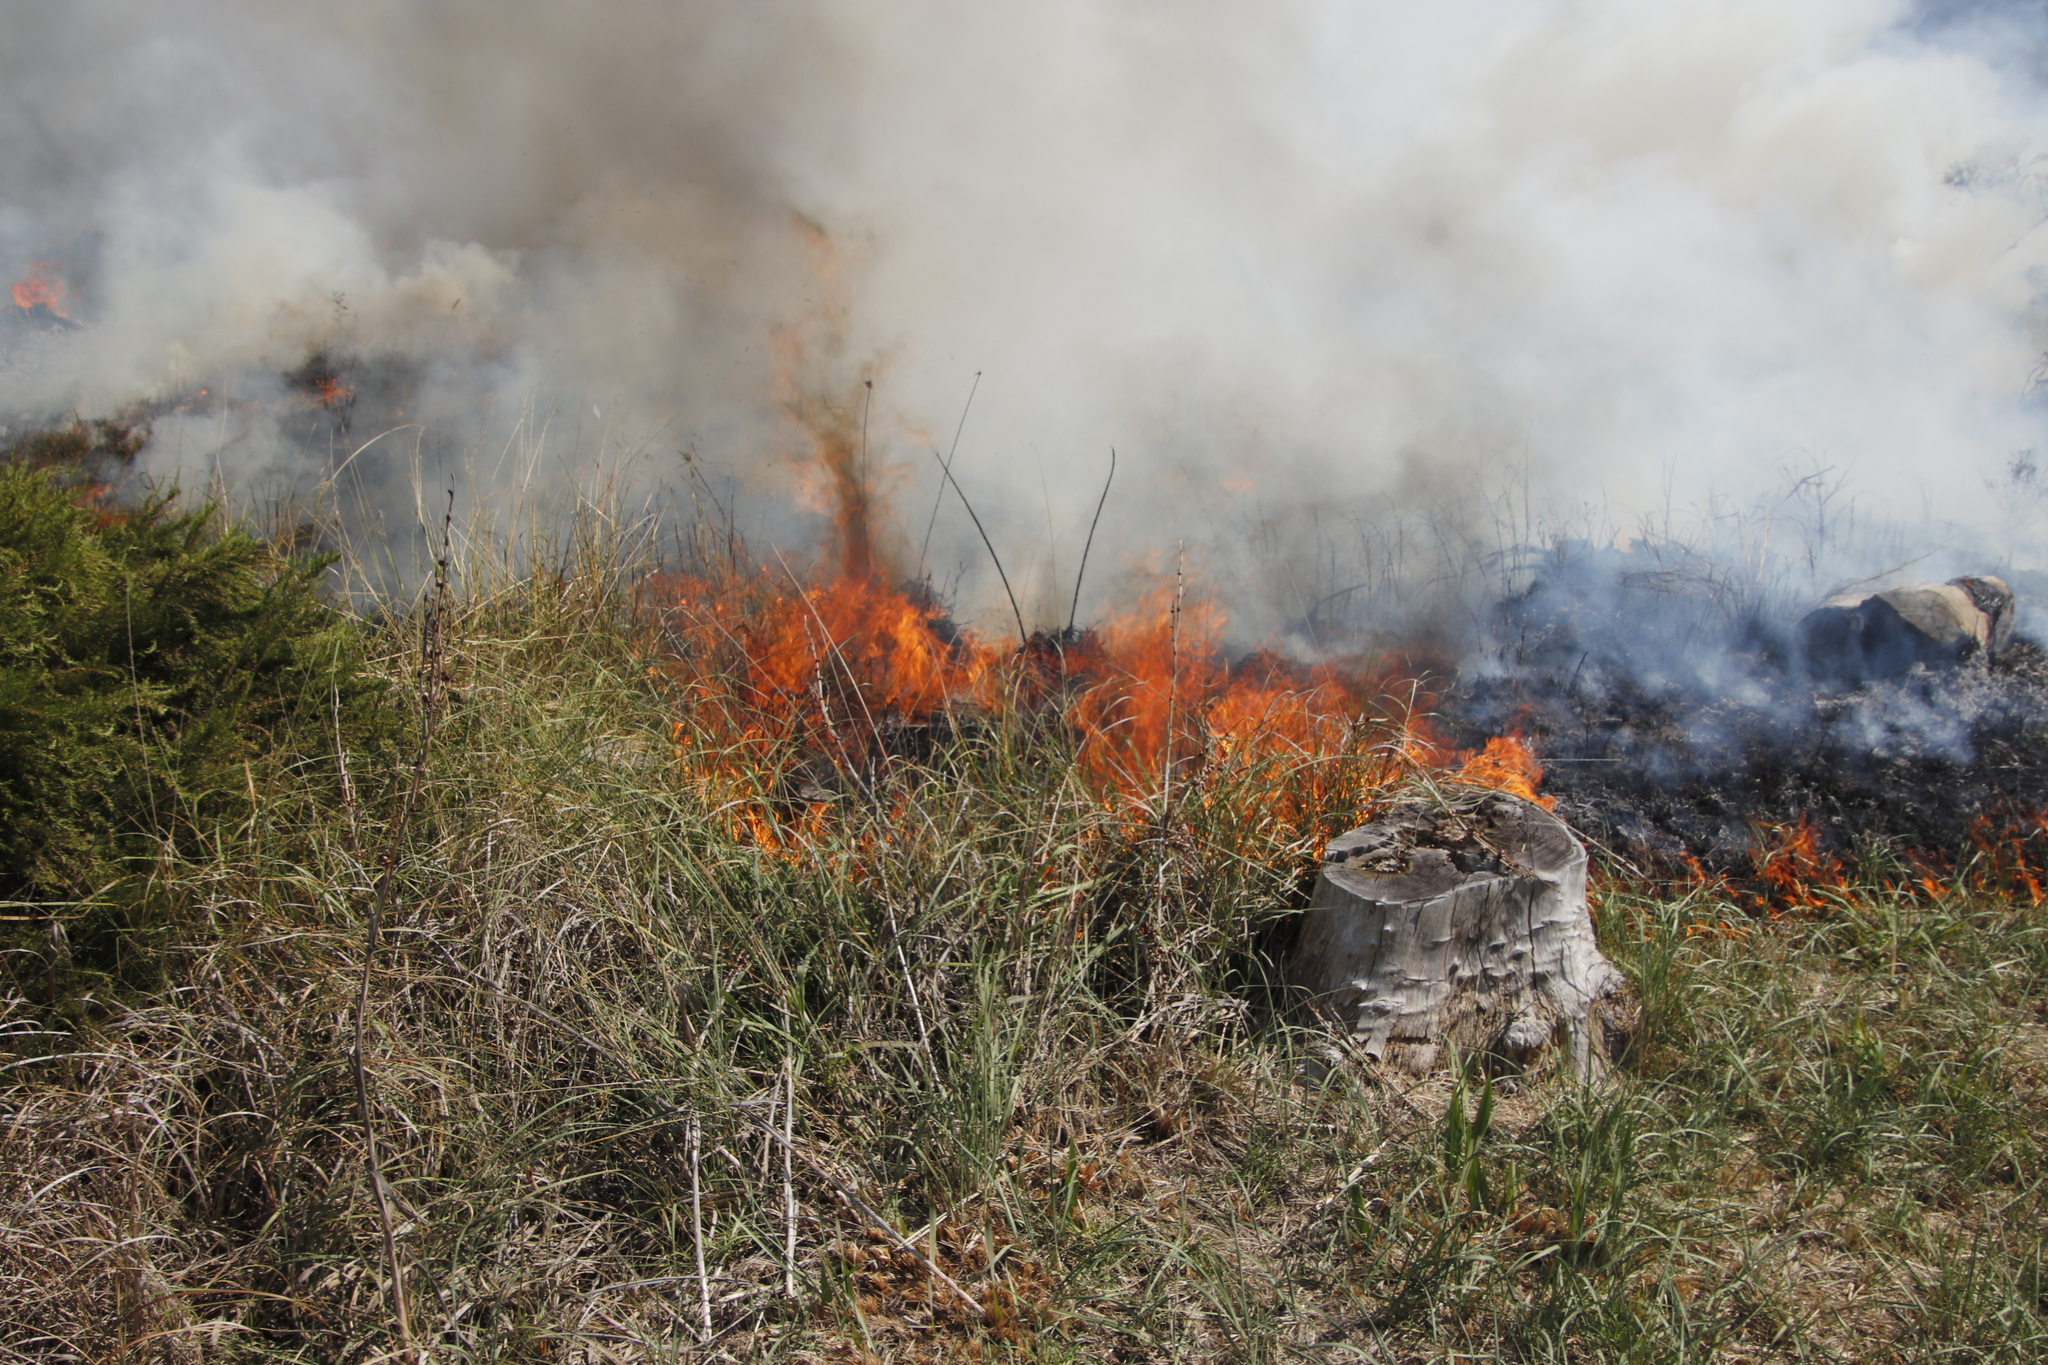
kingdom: Plantae
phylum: Tracheophyta
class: Liliopsida
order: Poales
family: Poaceae
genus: Cenchrus
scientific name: Cenchrus caudatus
